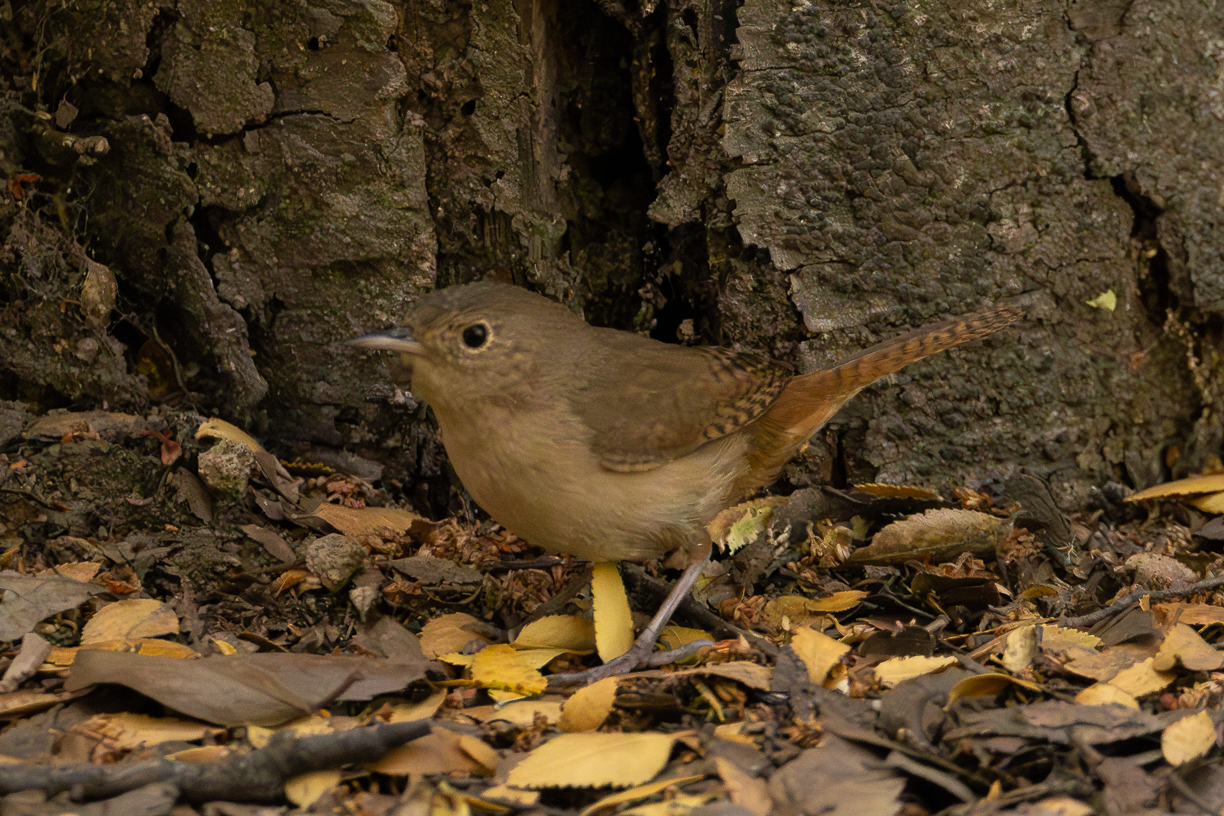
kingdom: Animalia
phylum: Chordata
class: Aves
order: Passeriformes
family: Troglodytidae
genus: Troglodytes
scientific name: Troglodytes aedon
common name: House wren
